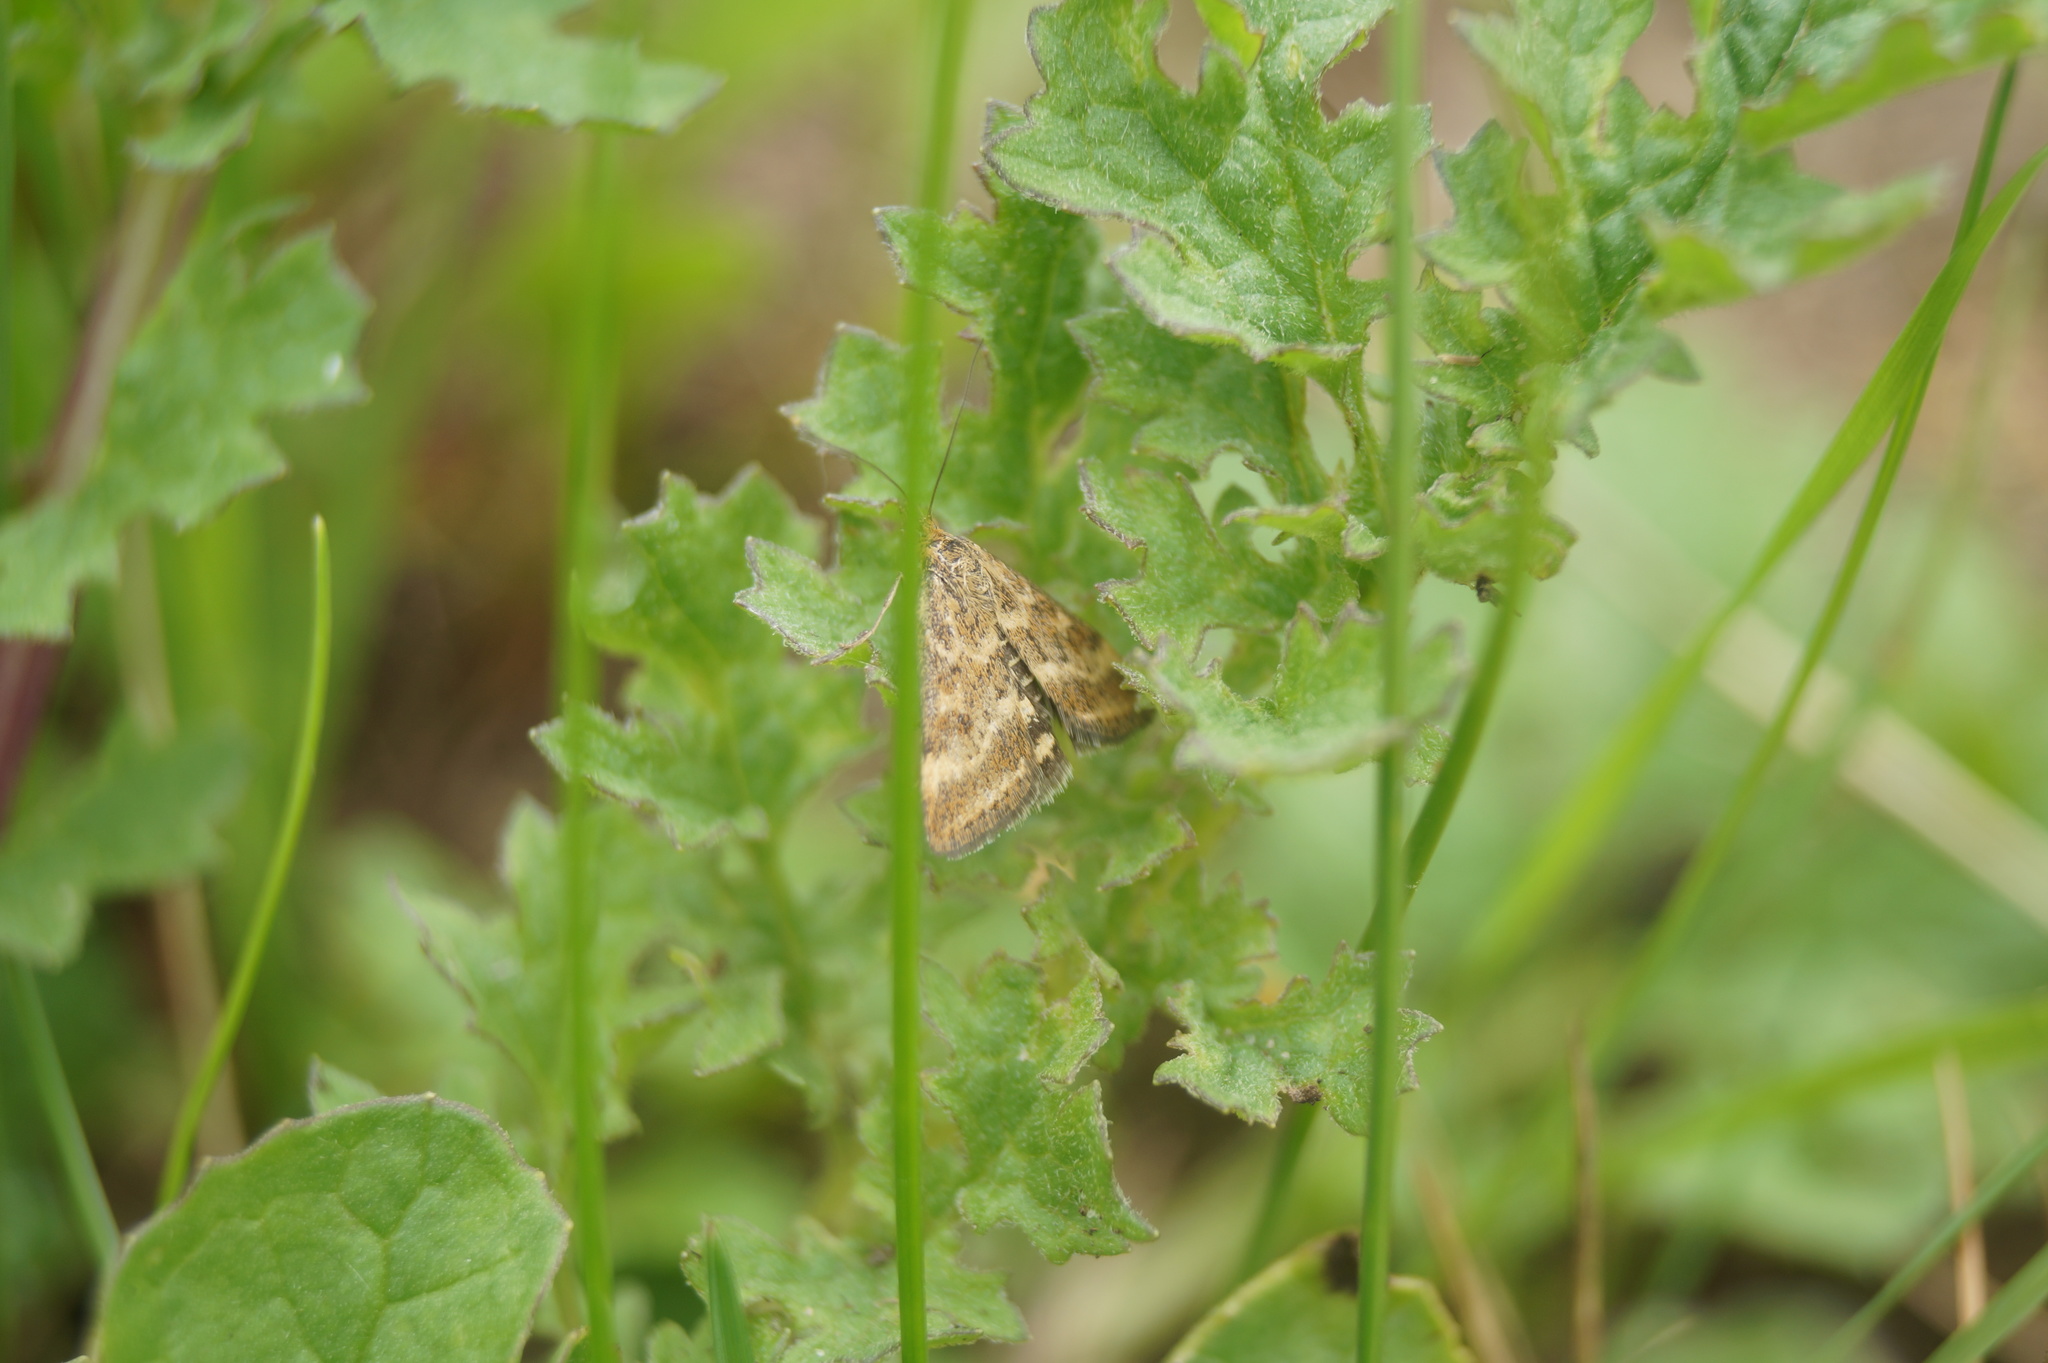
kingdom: Animalia
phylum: Arthropoda
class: Insecta
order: Lepidoptera
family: Crambidae
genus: Pyrausta
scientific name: Pyrausta despicata
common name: Straw-barred pearl
